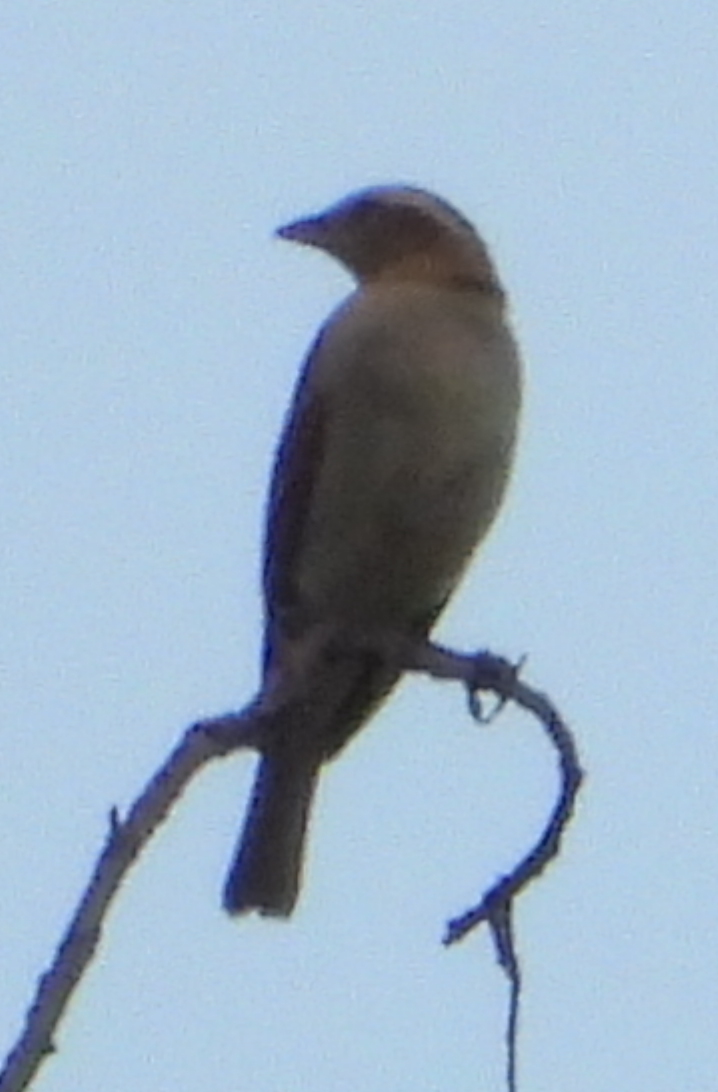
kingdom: Animalia
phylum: Chordata
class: Aves
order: Passeriformes
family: Passeridae
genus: Gymnoris
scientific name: Gymnoris superciliaris
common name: Yellow-throated petronia
